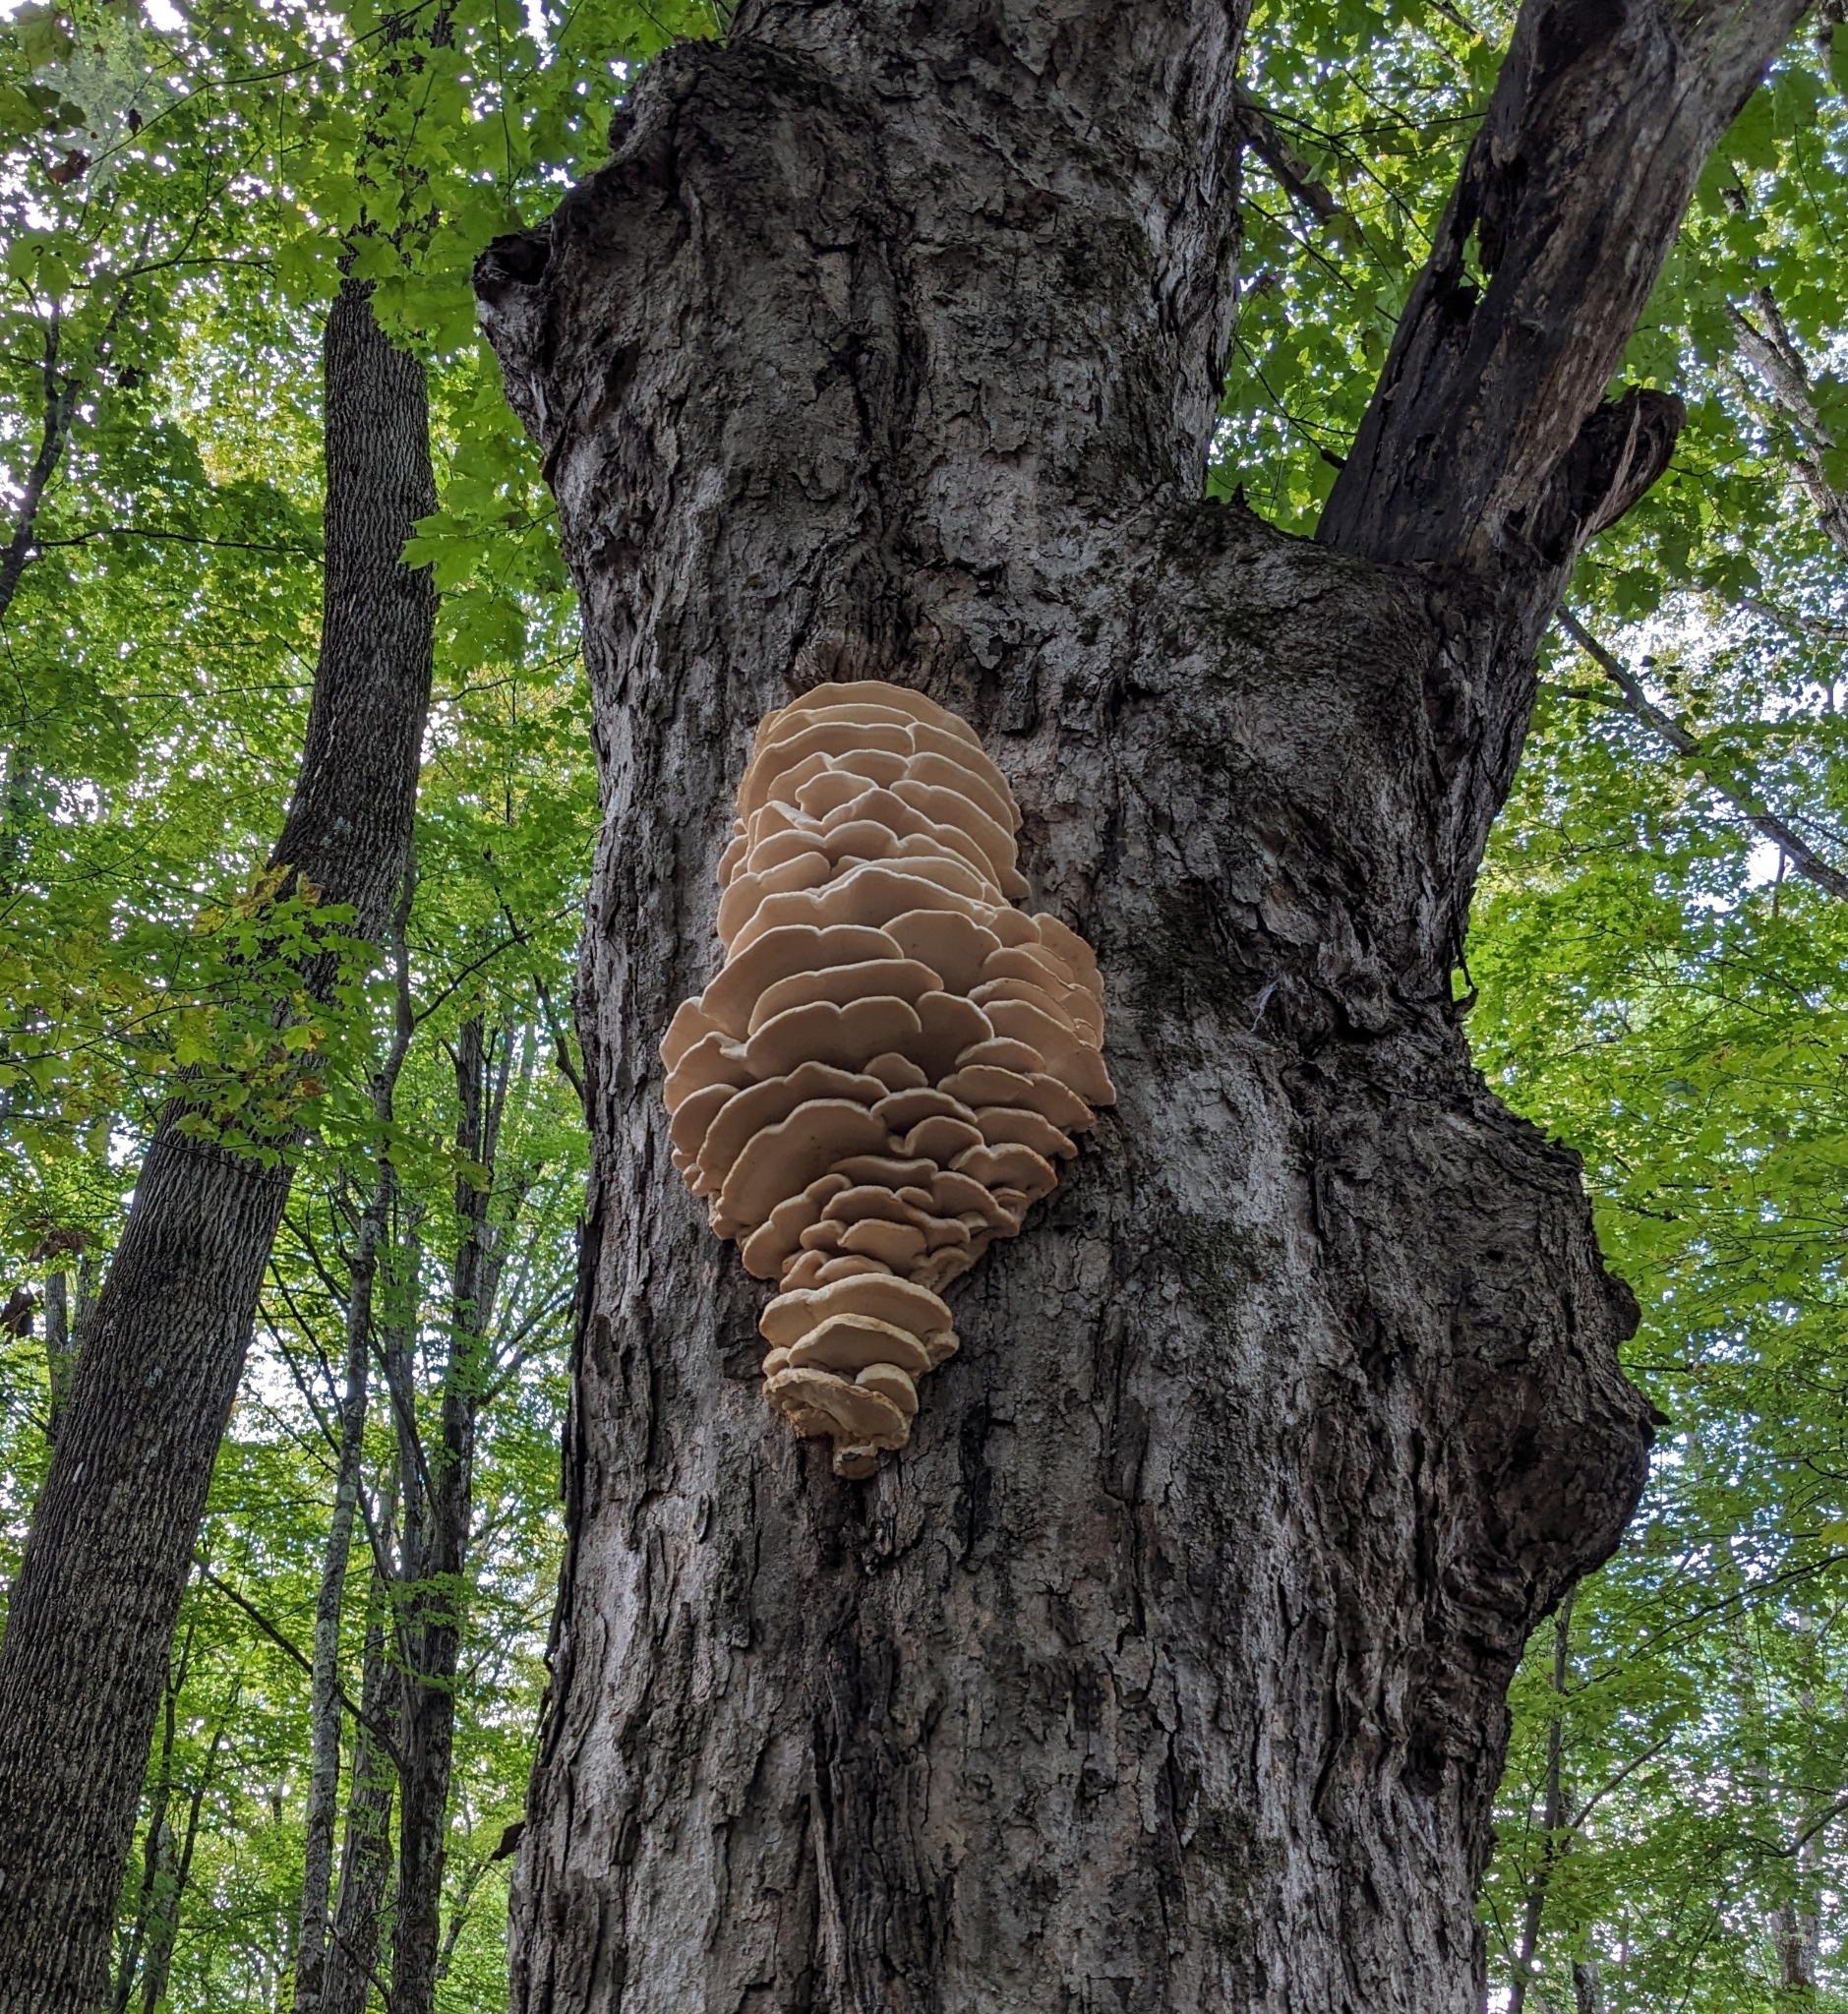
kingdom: Fungi
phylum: Basidiomycota
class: Agaricomycetes
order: Polyporales
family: Meruliaceae
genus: Climacodon
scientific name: Climacodon septentrionalis
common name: Northern tooth
